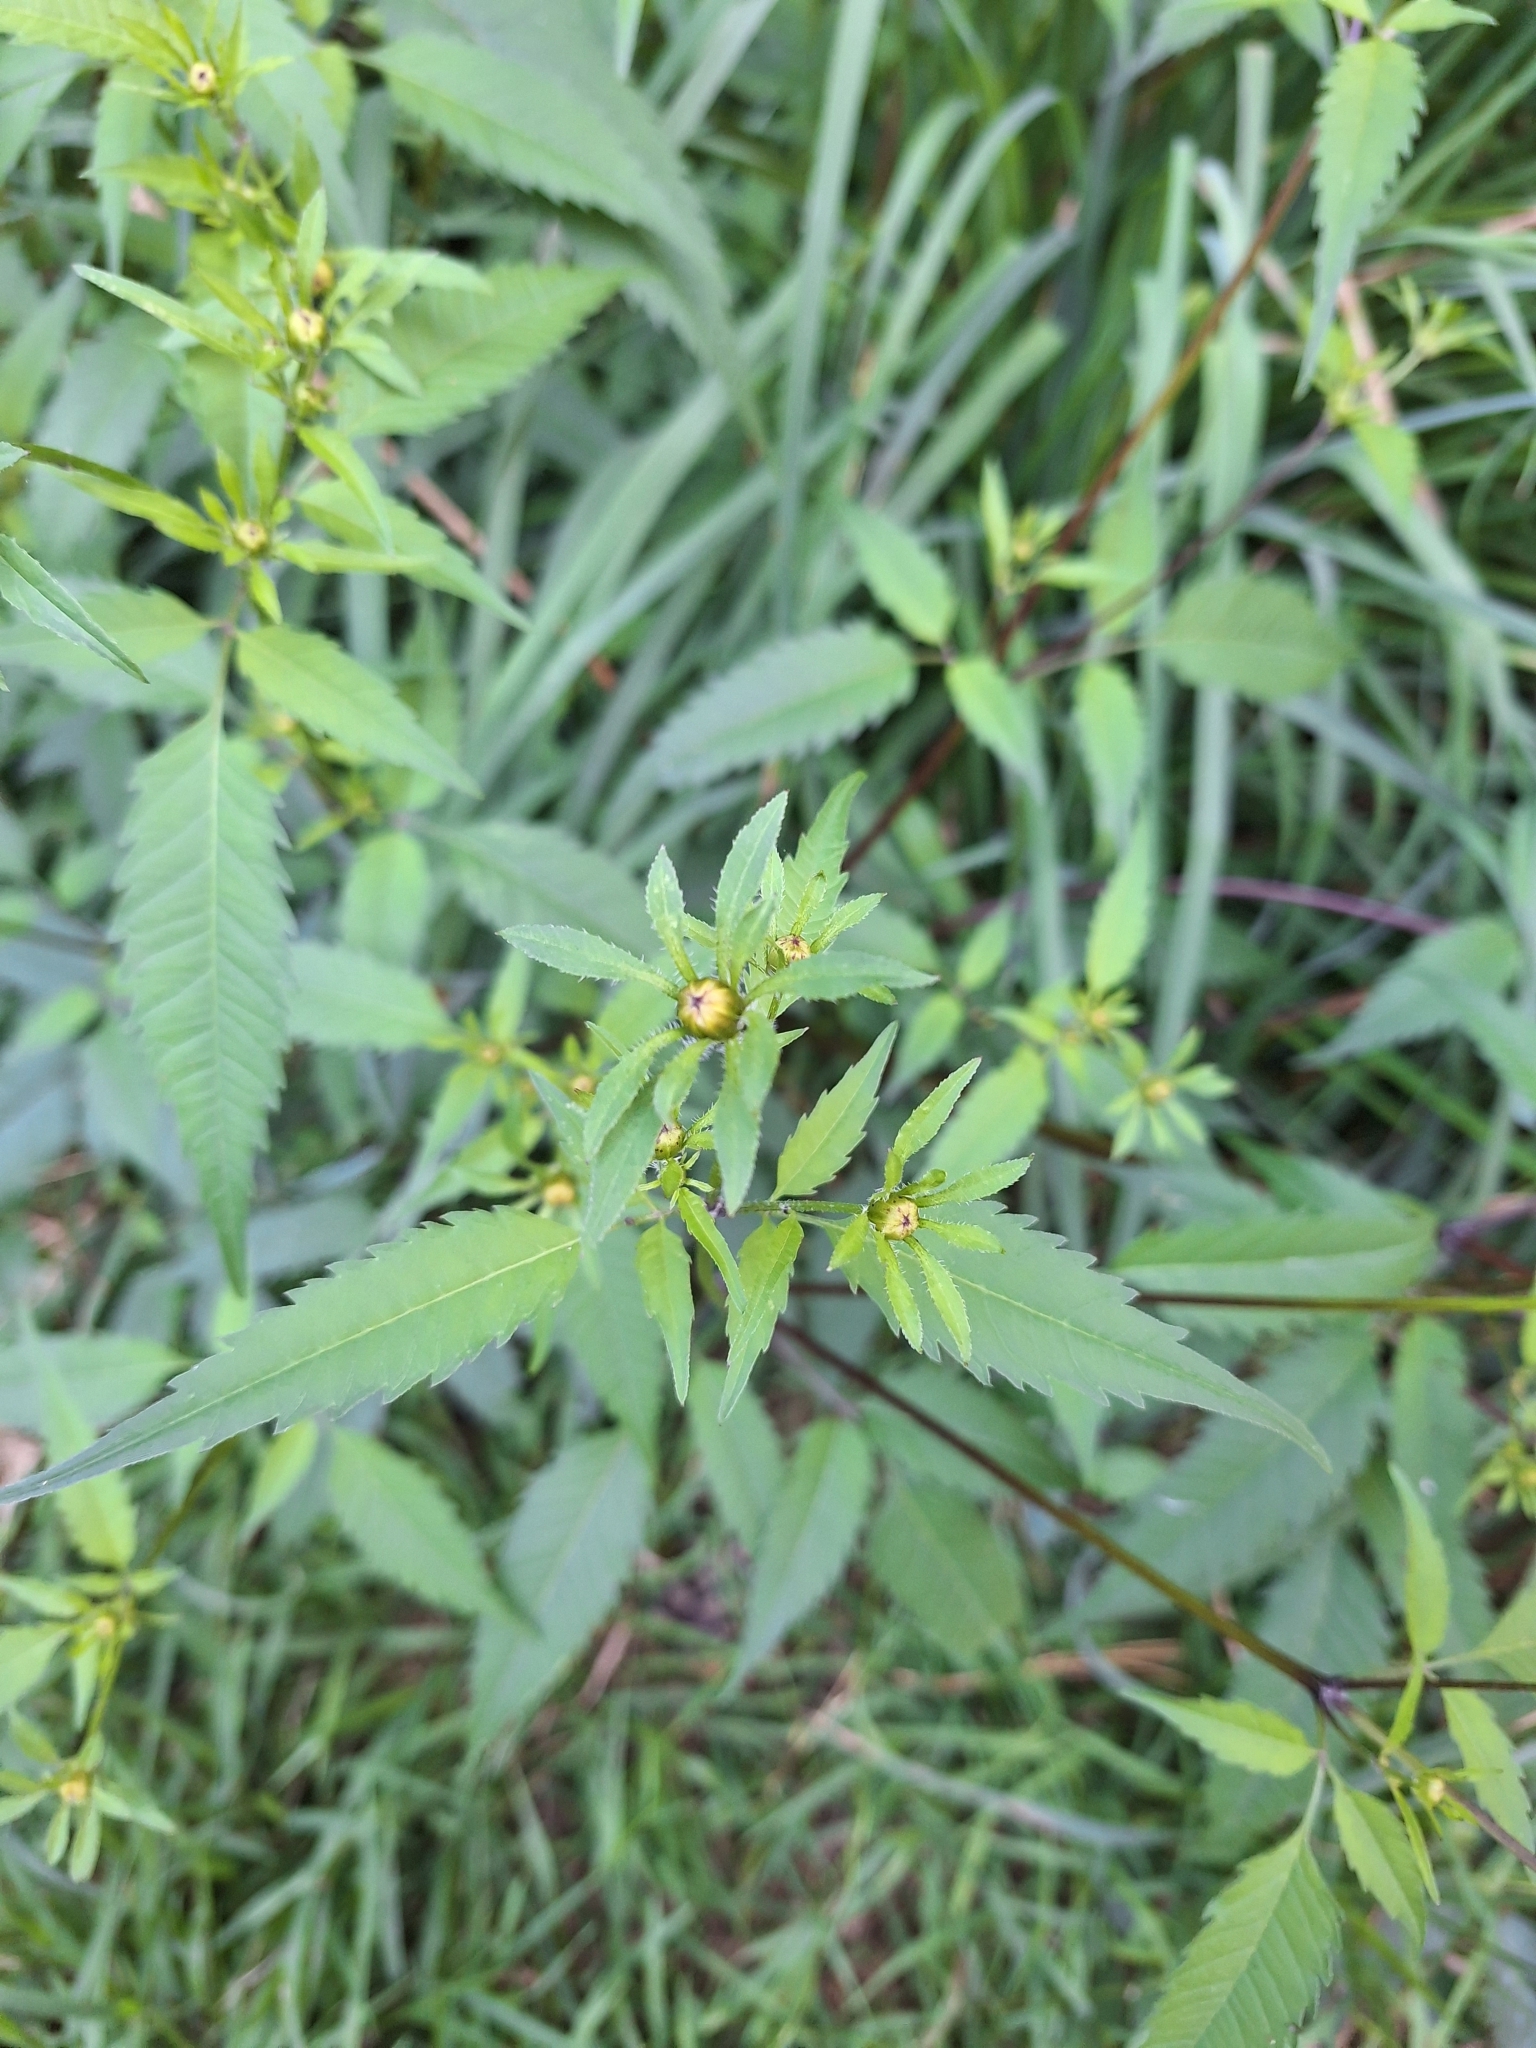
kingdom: Plantae
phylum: Tracheophyta
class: Magnoliopsida
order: Asterales
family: Asteraceae
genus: Bidens
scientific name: Bidens frondosa
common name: Beggarticks
